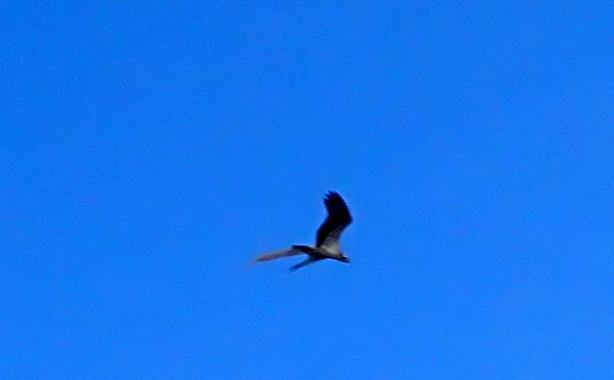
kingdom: Animalia
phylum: Chordata
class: Aves
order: Accipitriformes
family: Pandionidae
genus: Pandion
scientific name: Pandion haliaetus
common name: Osprey
